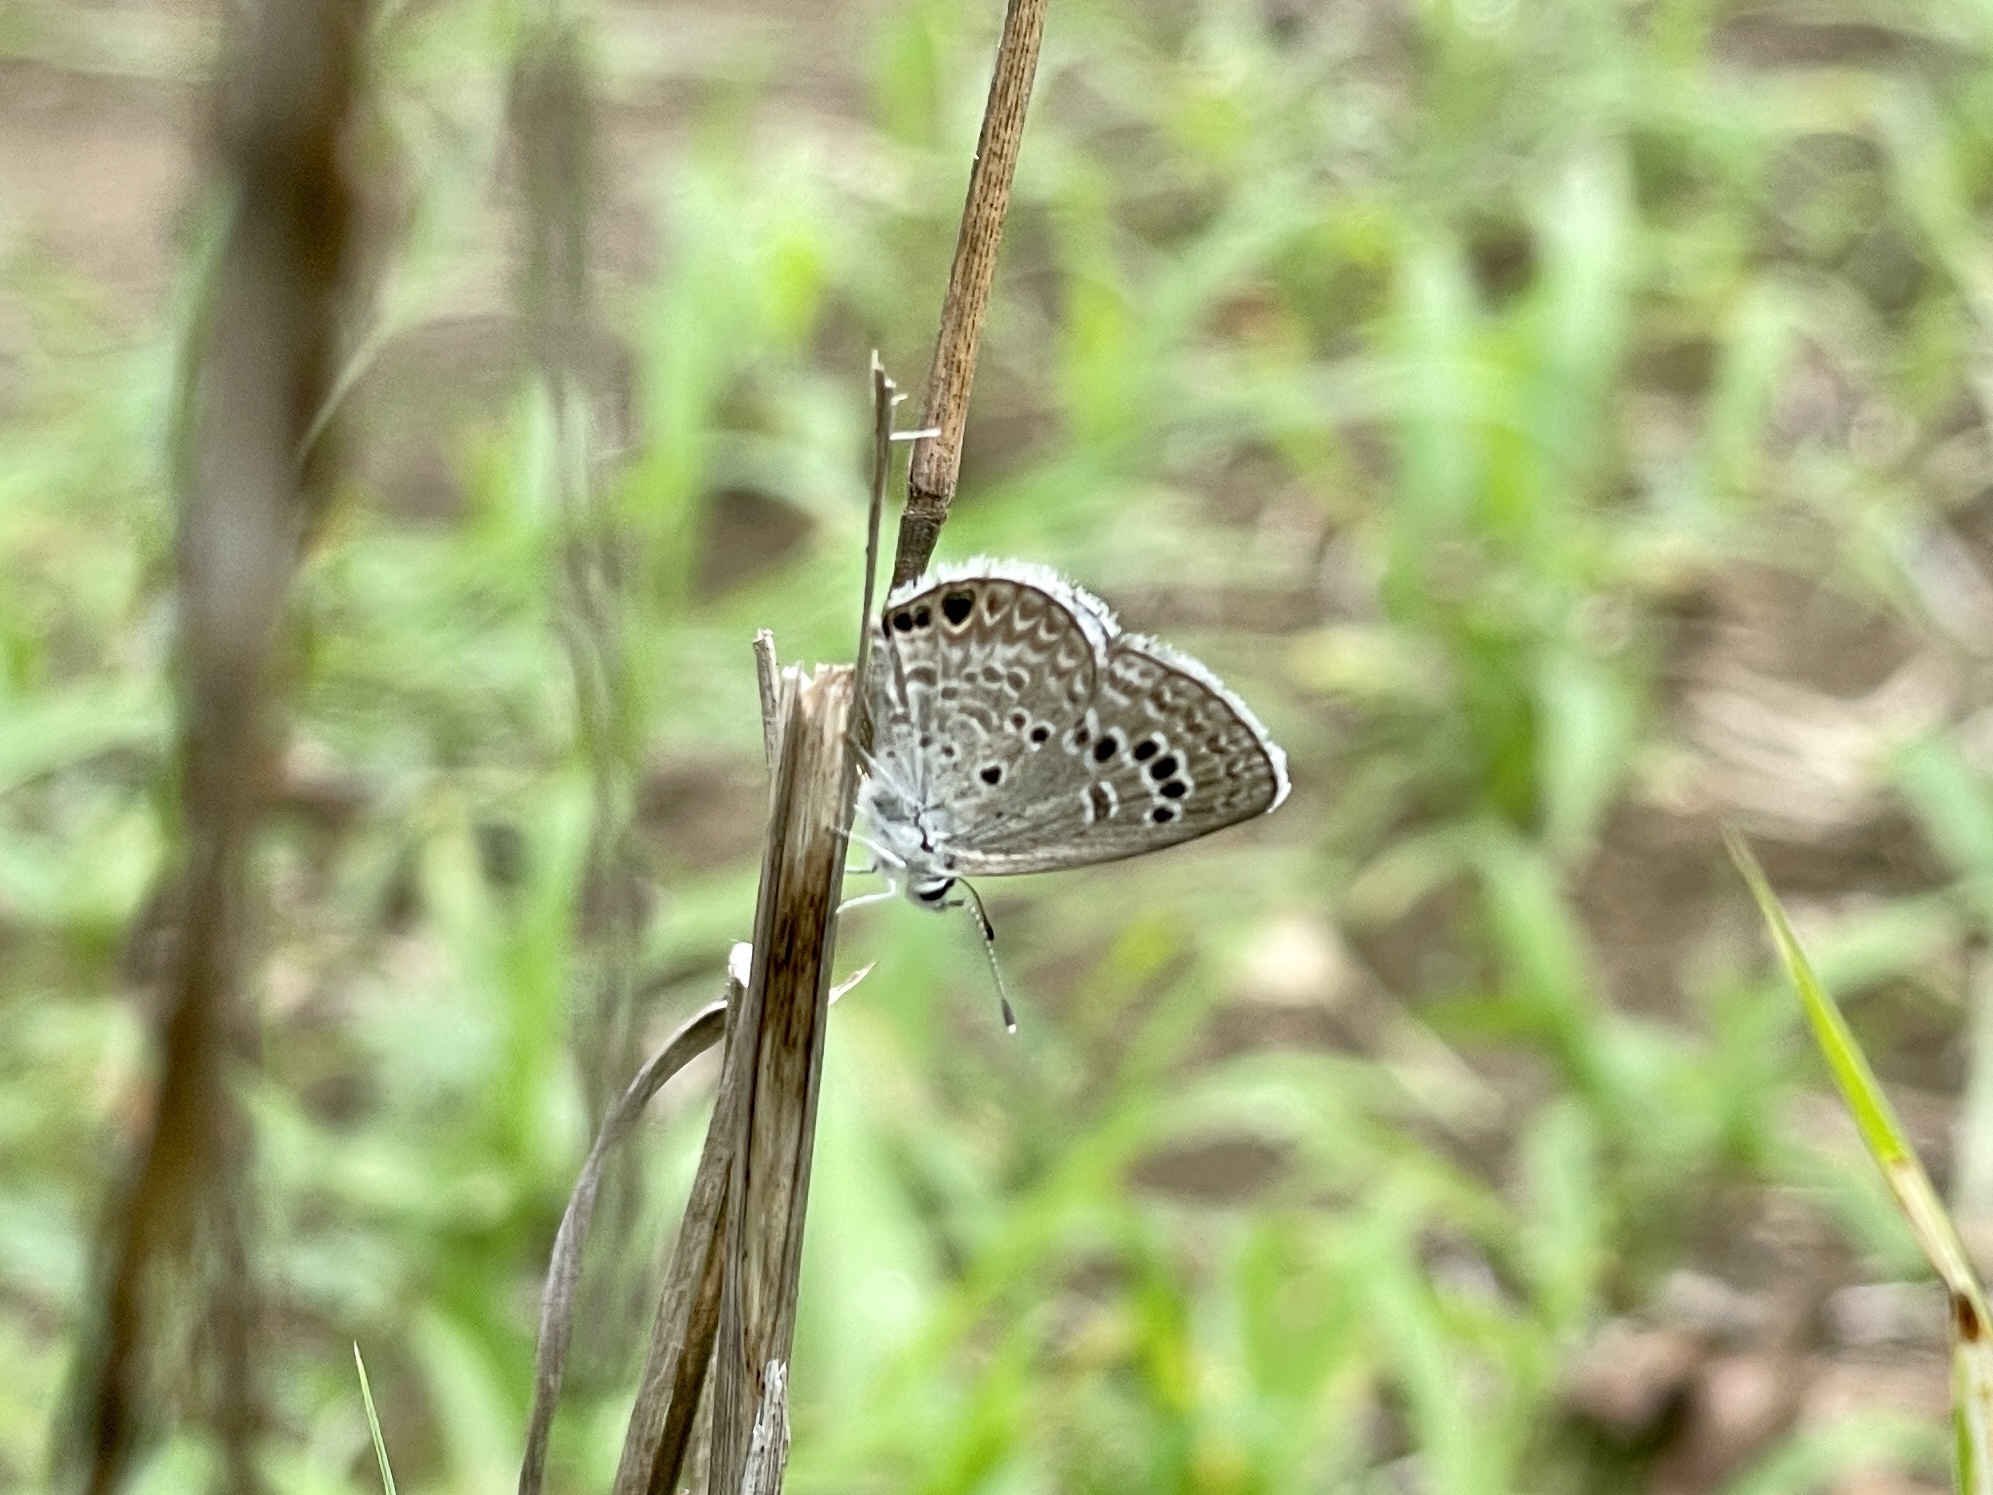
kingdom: Animalia
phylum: Arthropoda
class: Insecta
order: Lepidoptera
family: Lycaenidae
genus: Echinargus
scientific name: Echinargus isola
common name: Reakirt's blue
